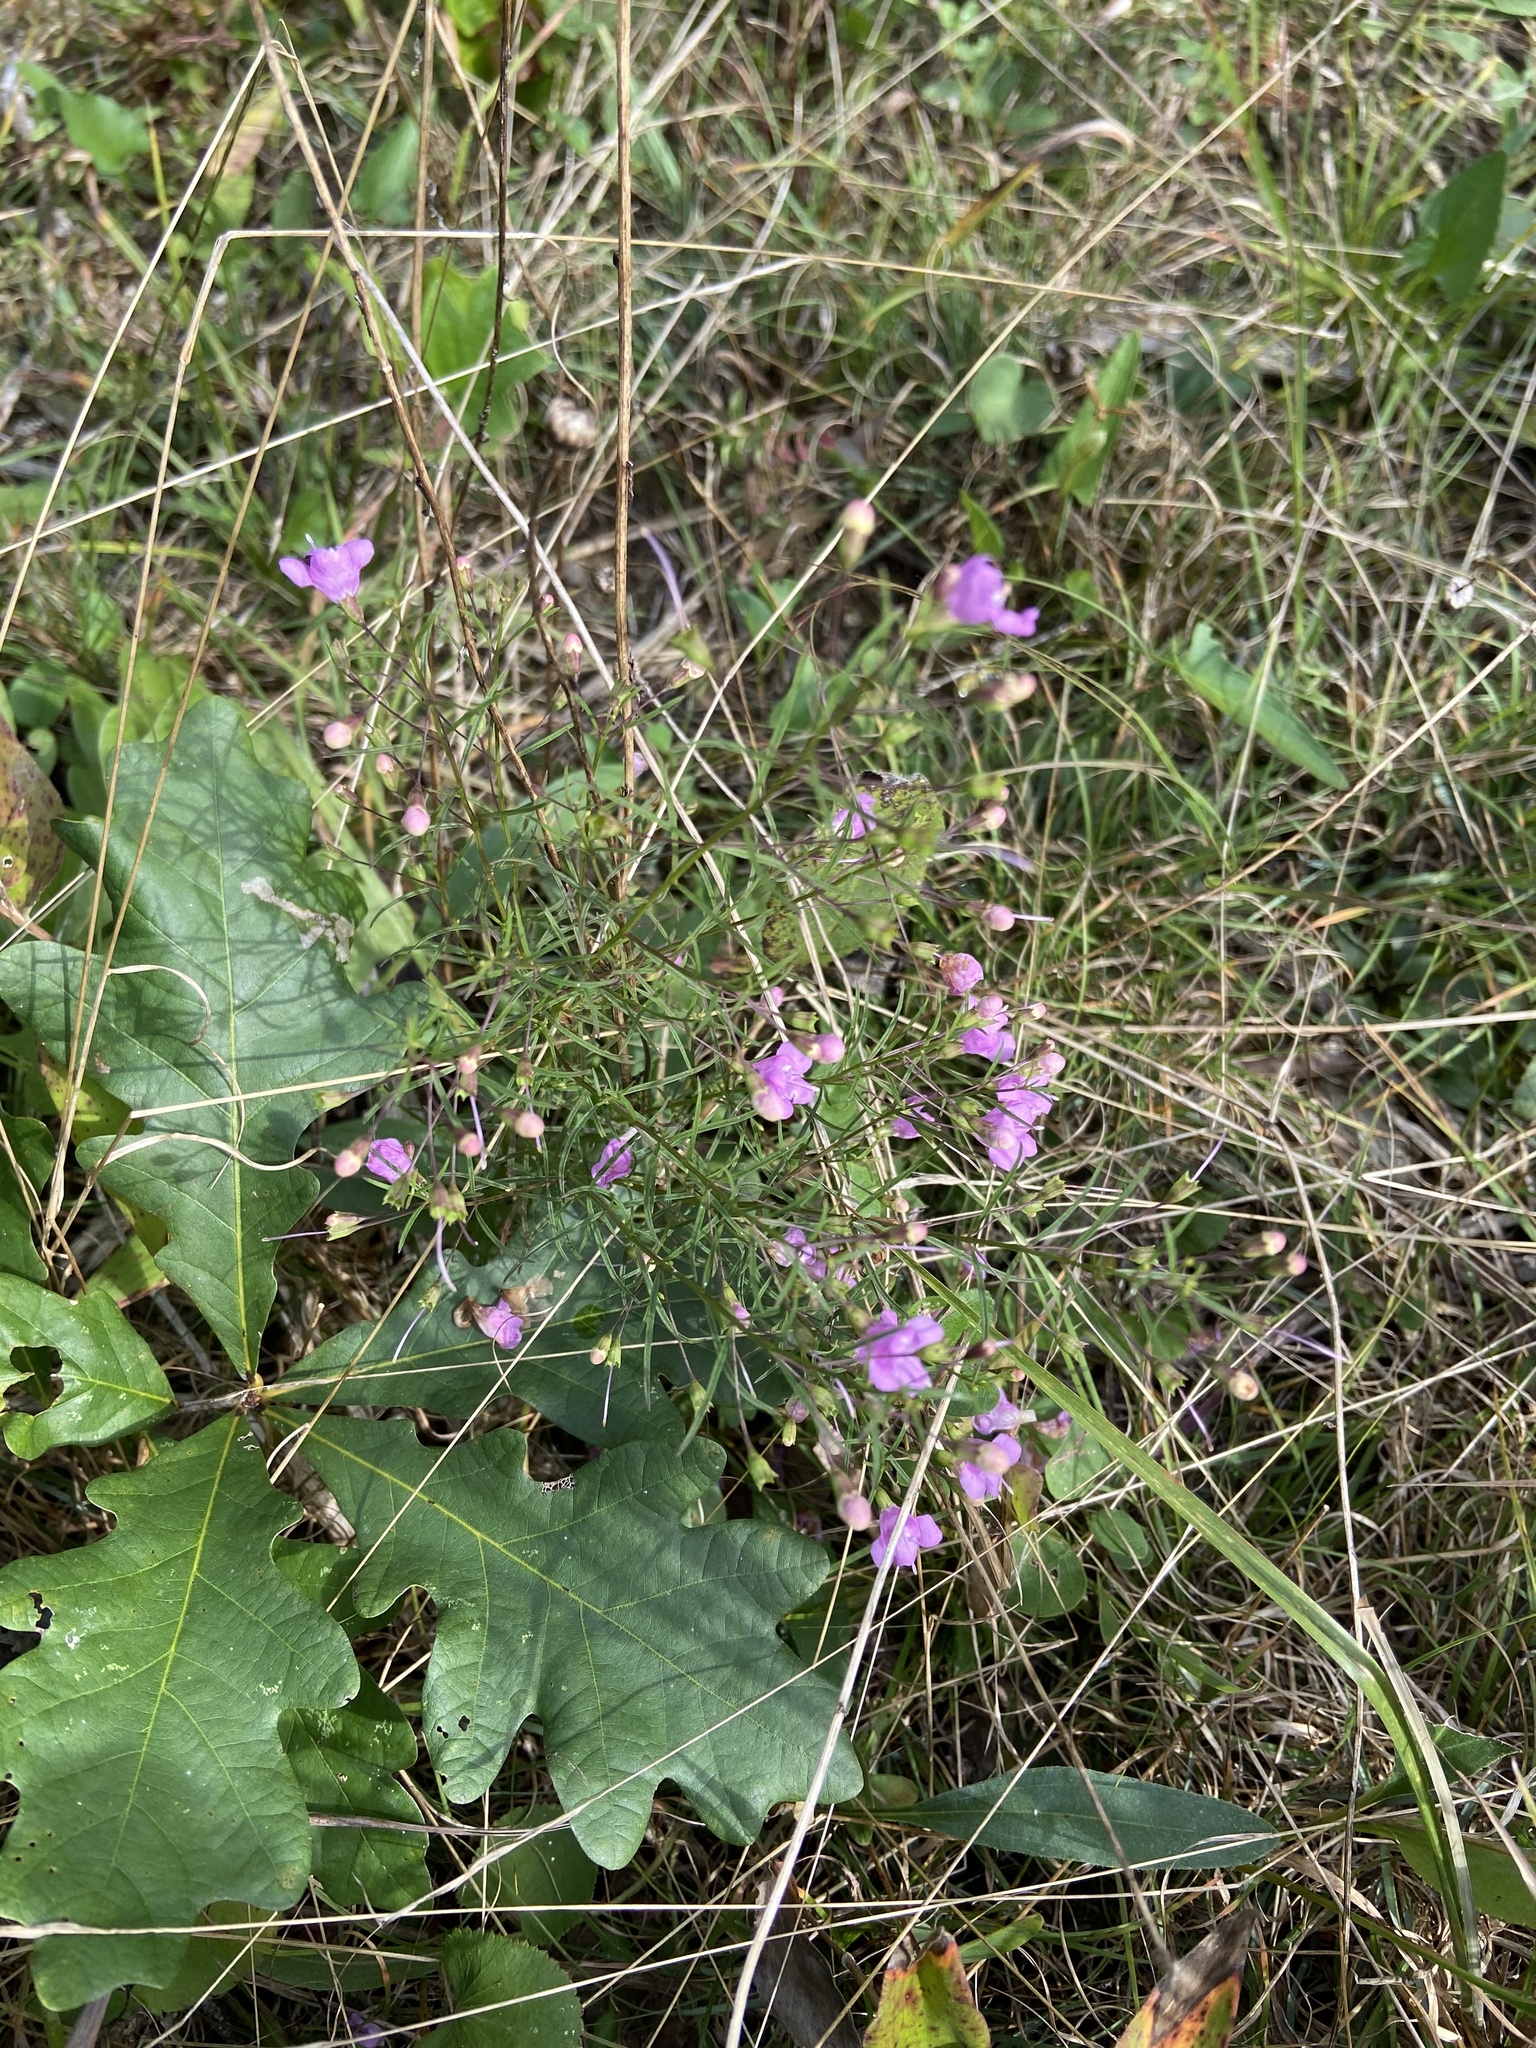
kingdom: Plantae
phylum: Tracheophyta
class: Magnoliopsida
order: Lamiales
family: Orobanchaceae
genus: Agalinis
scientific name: Agalinis tenuifolia
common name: Slender agalinis
